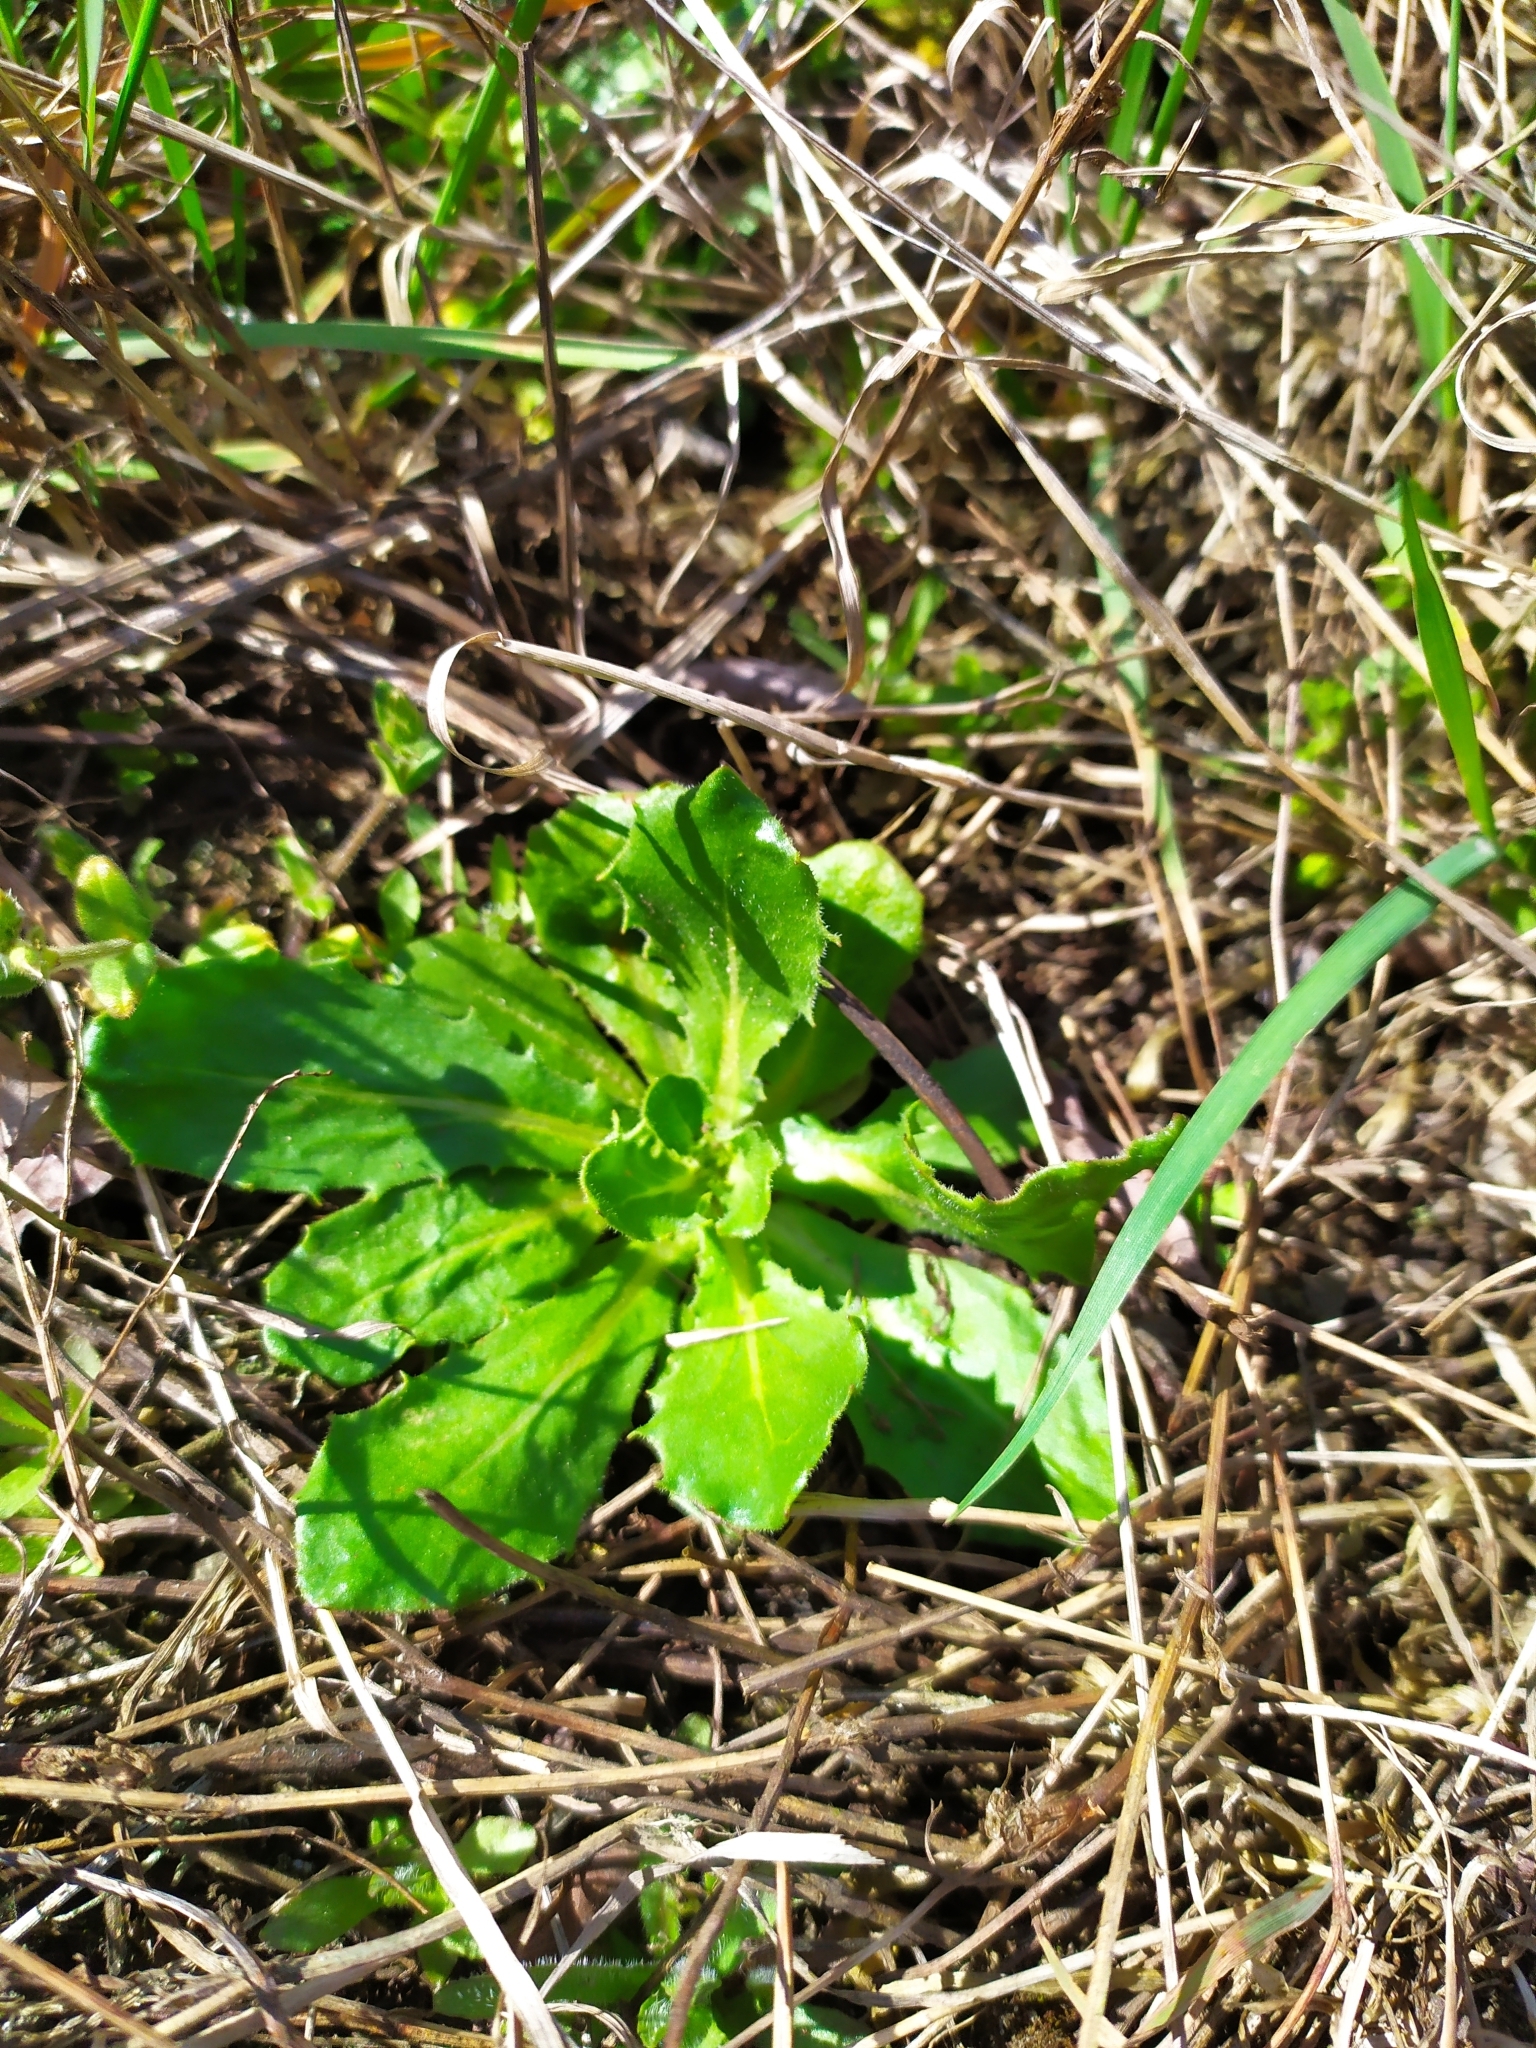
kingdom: Plantae
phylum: Tracheophyta
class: Magnoliopsida
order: Asterales
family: Asteraceae
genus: Hypochaeris
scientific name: Hypochaeris radicata
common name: Flatweed
